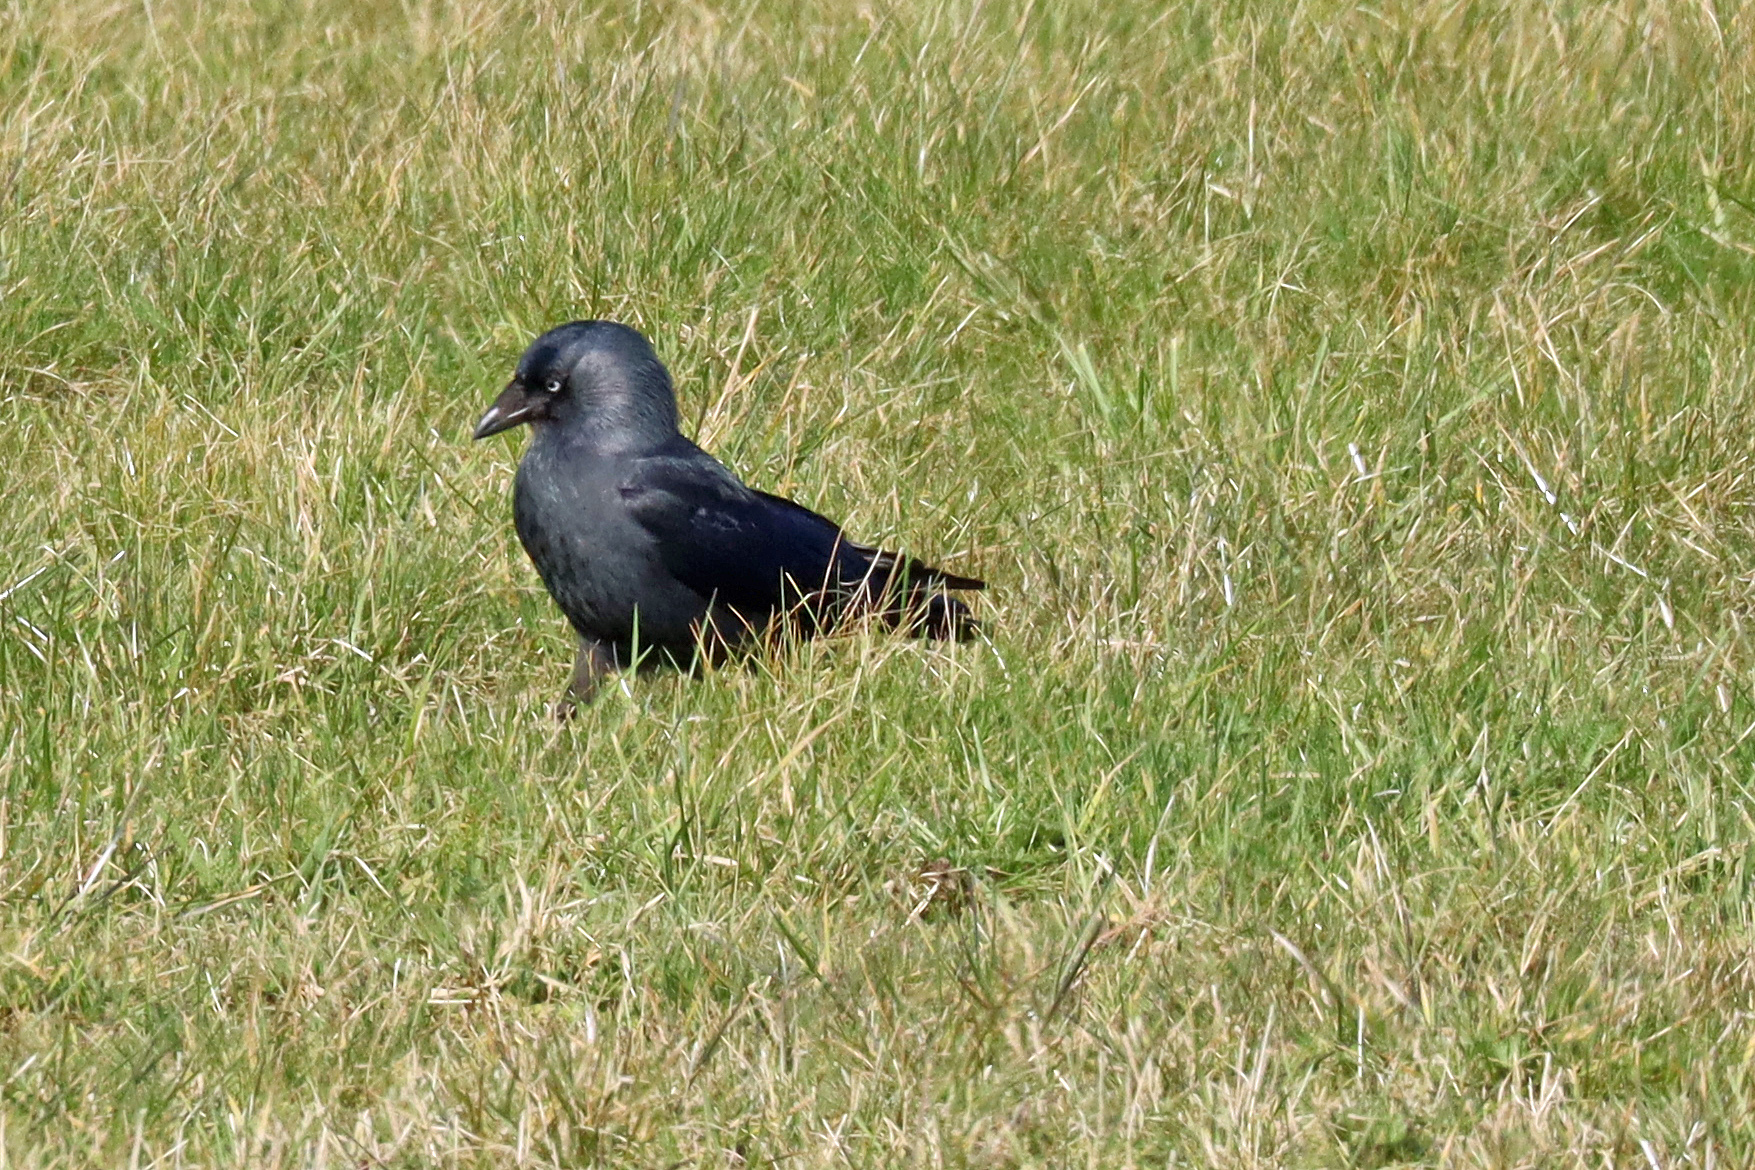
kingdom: Animalia
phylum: Chordata
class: Aves
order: Passeriformes
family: Corvidae
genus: Coloeus
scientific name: Coloeus monedula
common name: Western jackdaw
